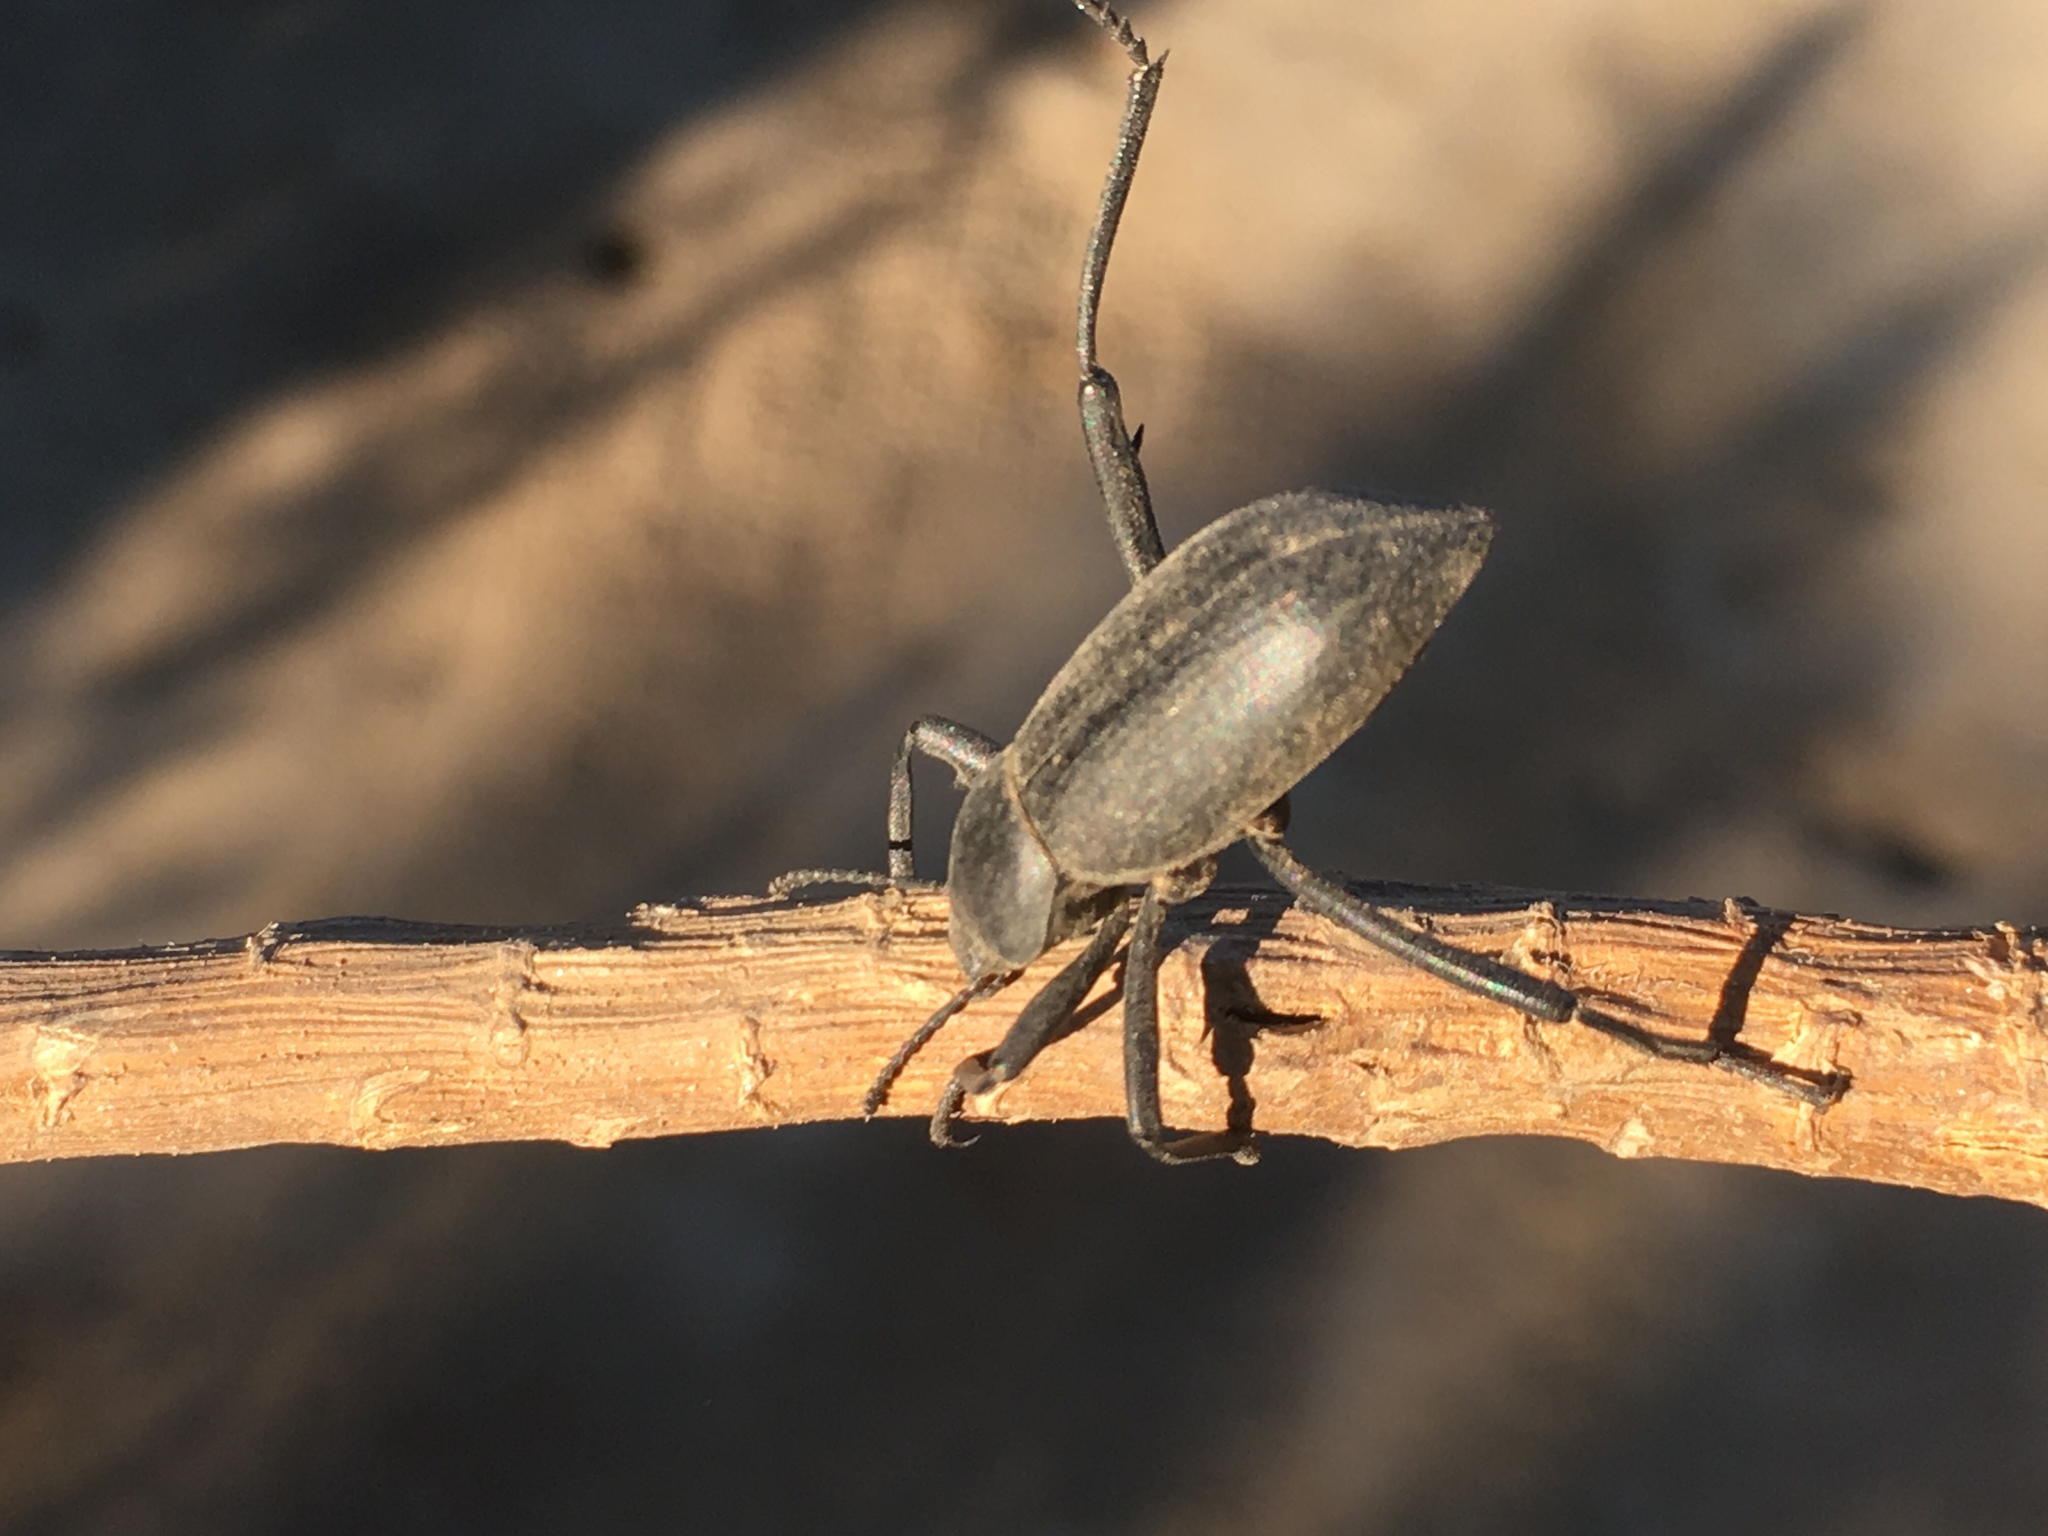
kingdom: Animalia
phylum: Arthropoda
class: Insecta
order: Coleoptera
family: Tenebrionidae
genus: Eleodes
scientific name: Eleodes armata
